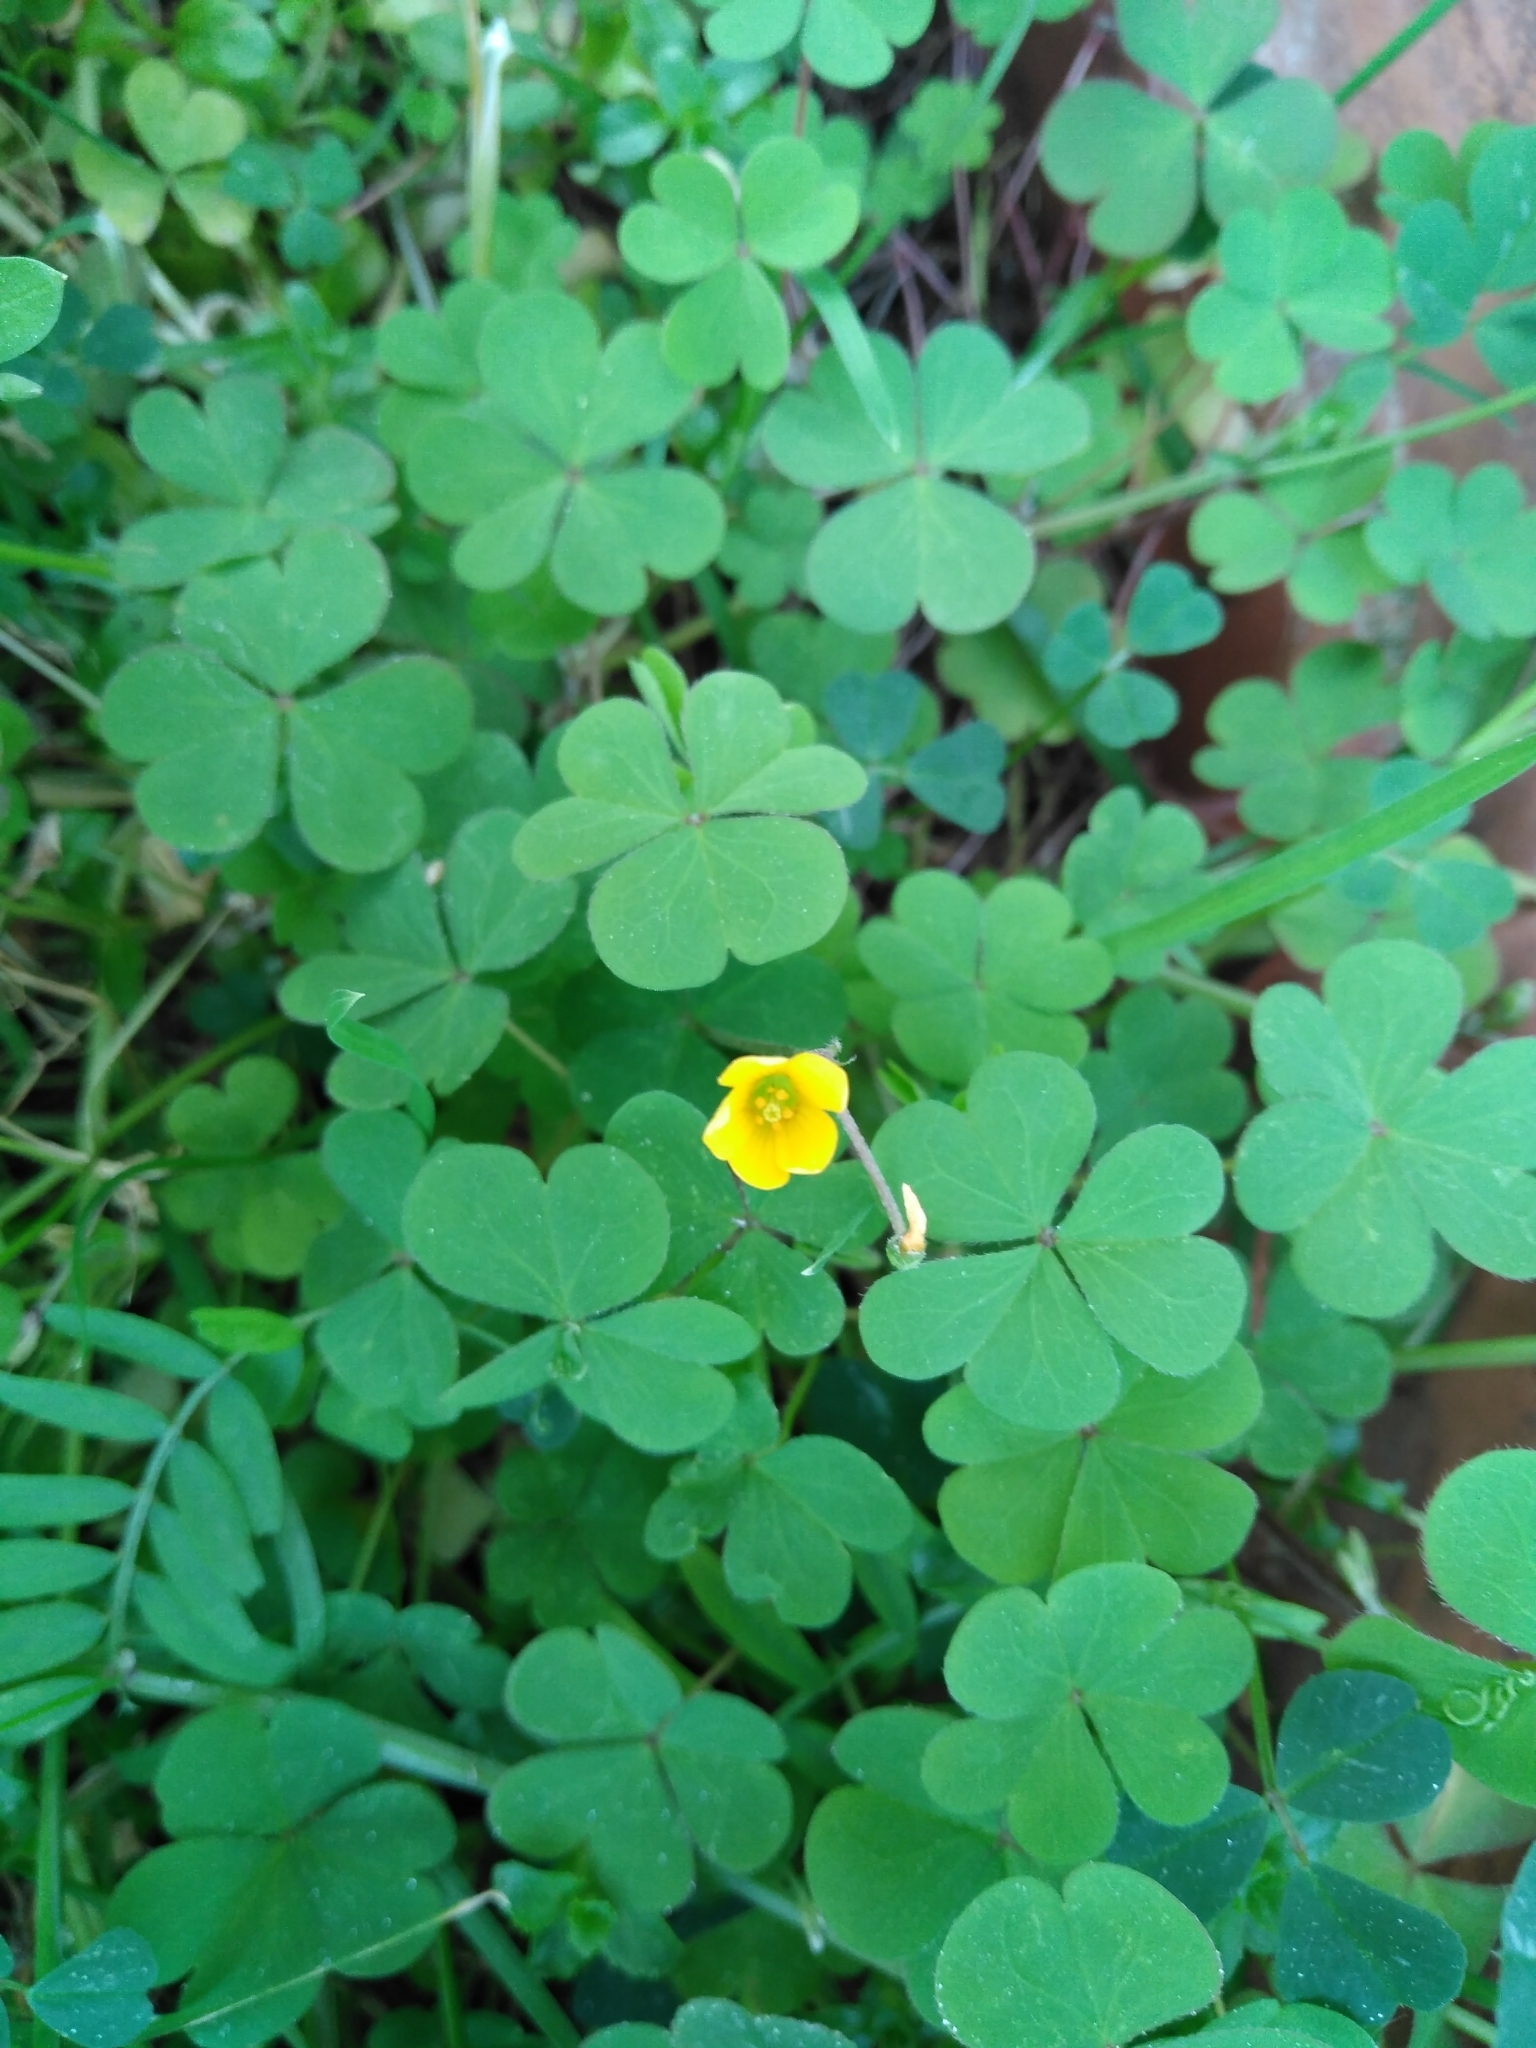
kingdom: Plantae
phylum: Tracheophyta
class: Magnoliopsida
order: Oxalidales
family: Oxalidaceae
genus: Oxalis
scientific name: Oxalis corniculata
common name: Procumbent yellow-sorrel
